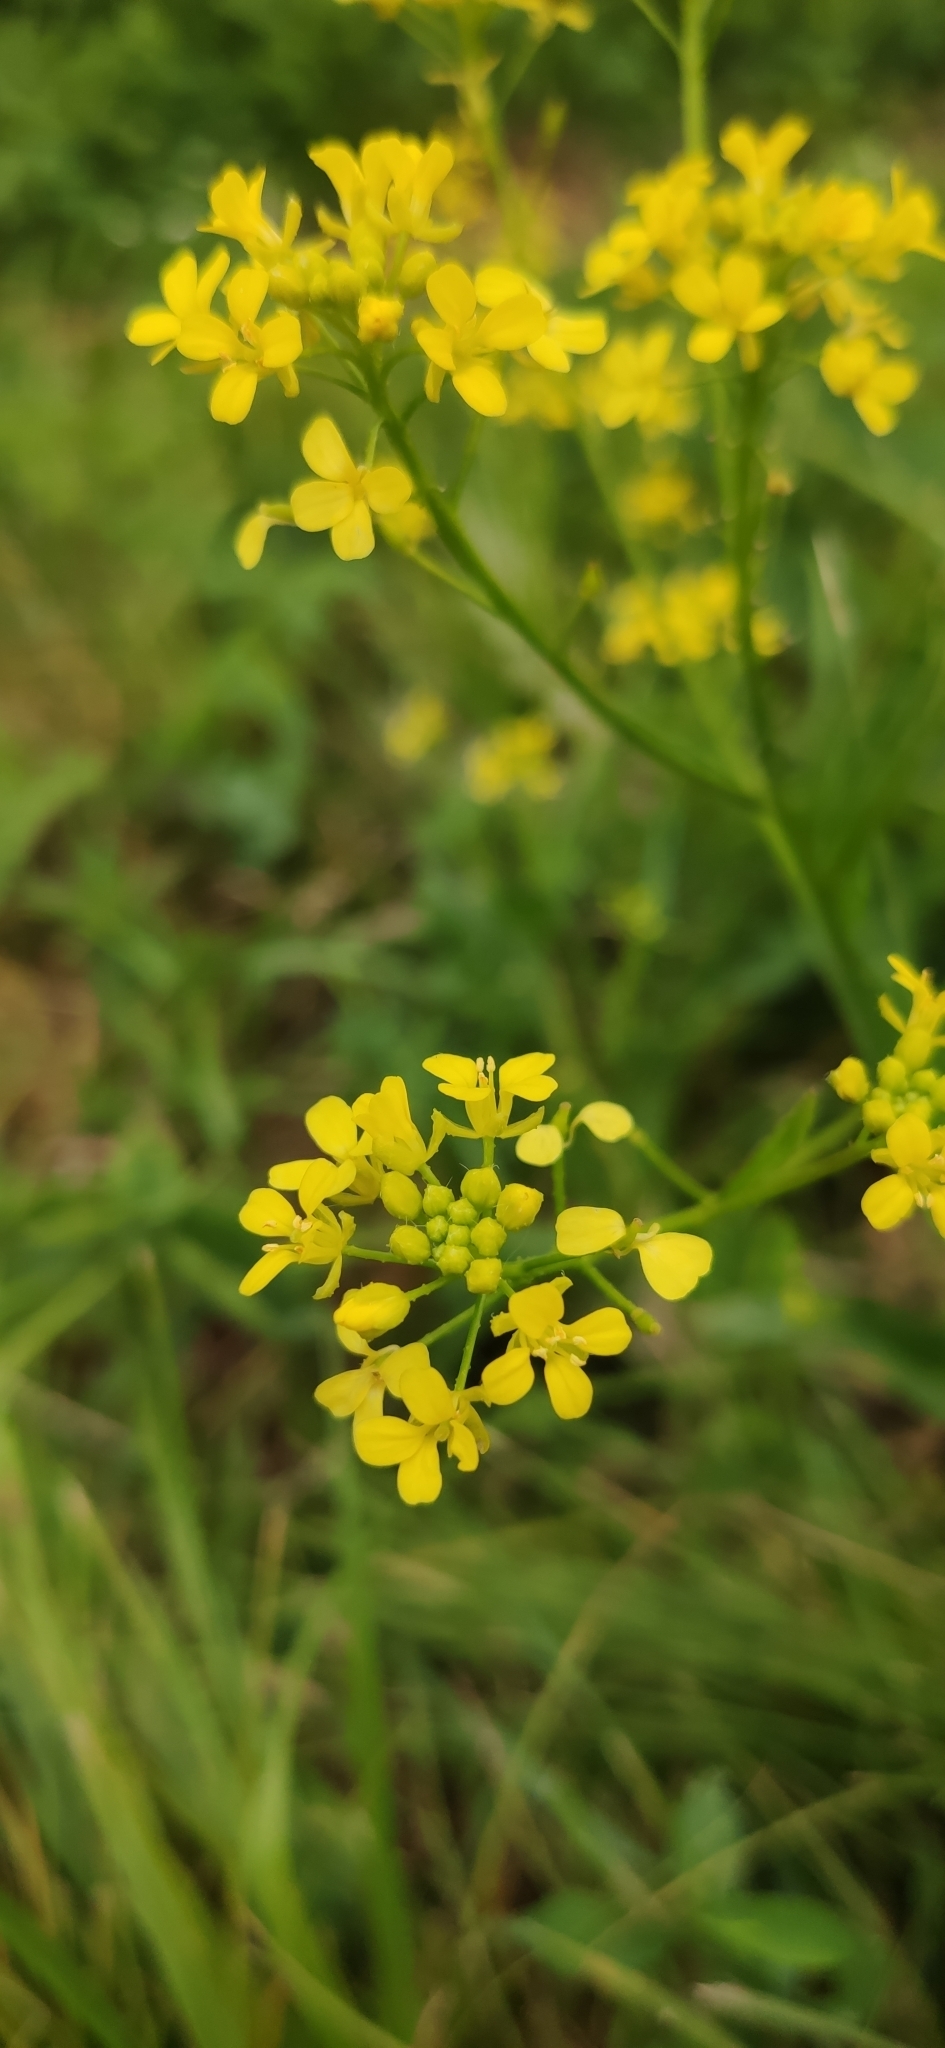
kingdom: Plantae
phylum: Tracheophyta
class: Magnoliopsida
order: Brassicales
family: Brassicaceae
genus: Bunias
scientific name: Bunias orientalis
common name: Warty-cabbage
